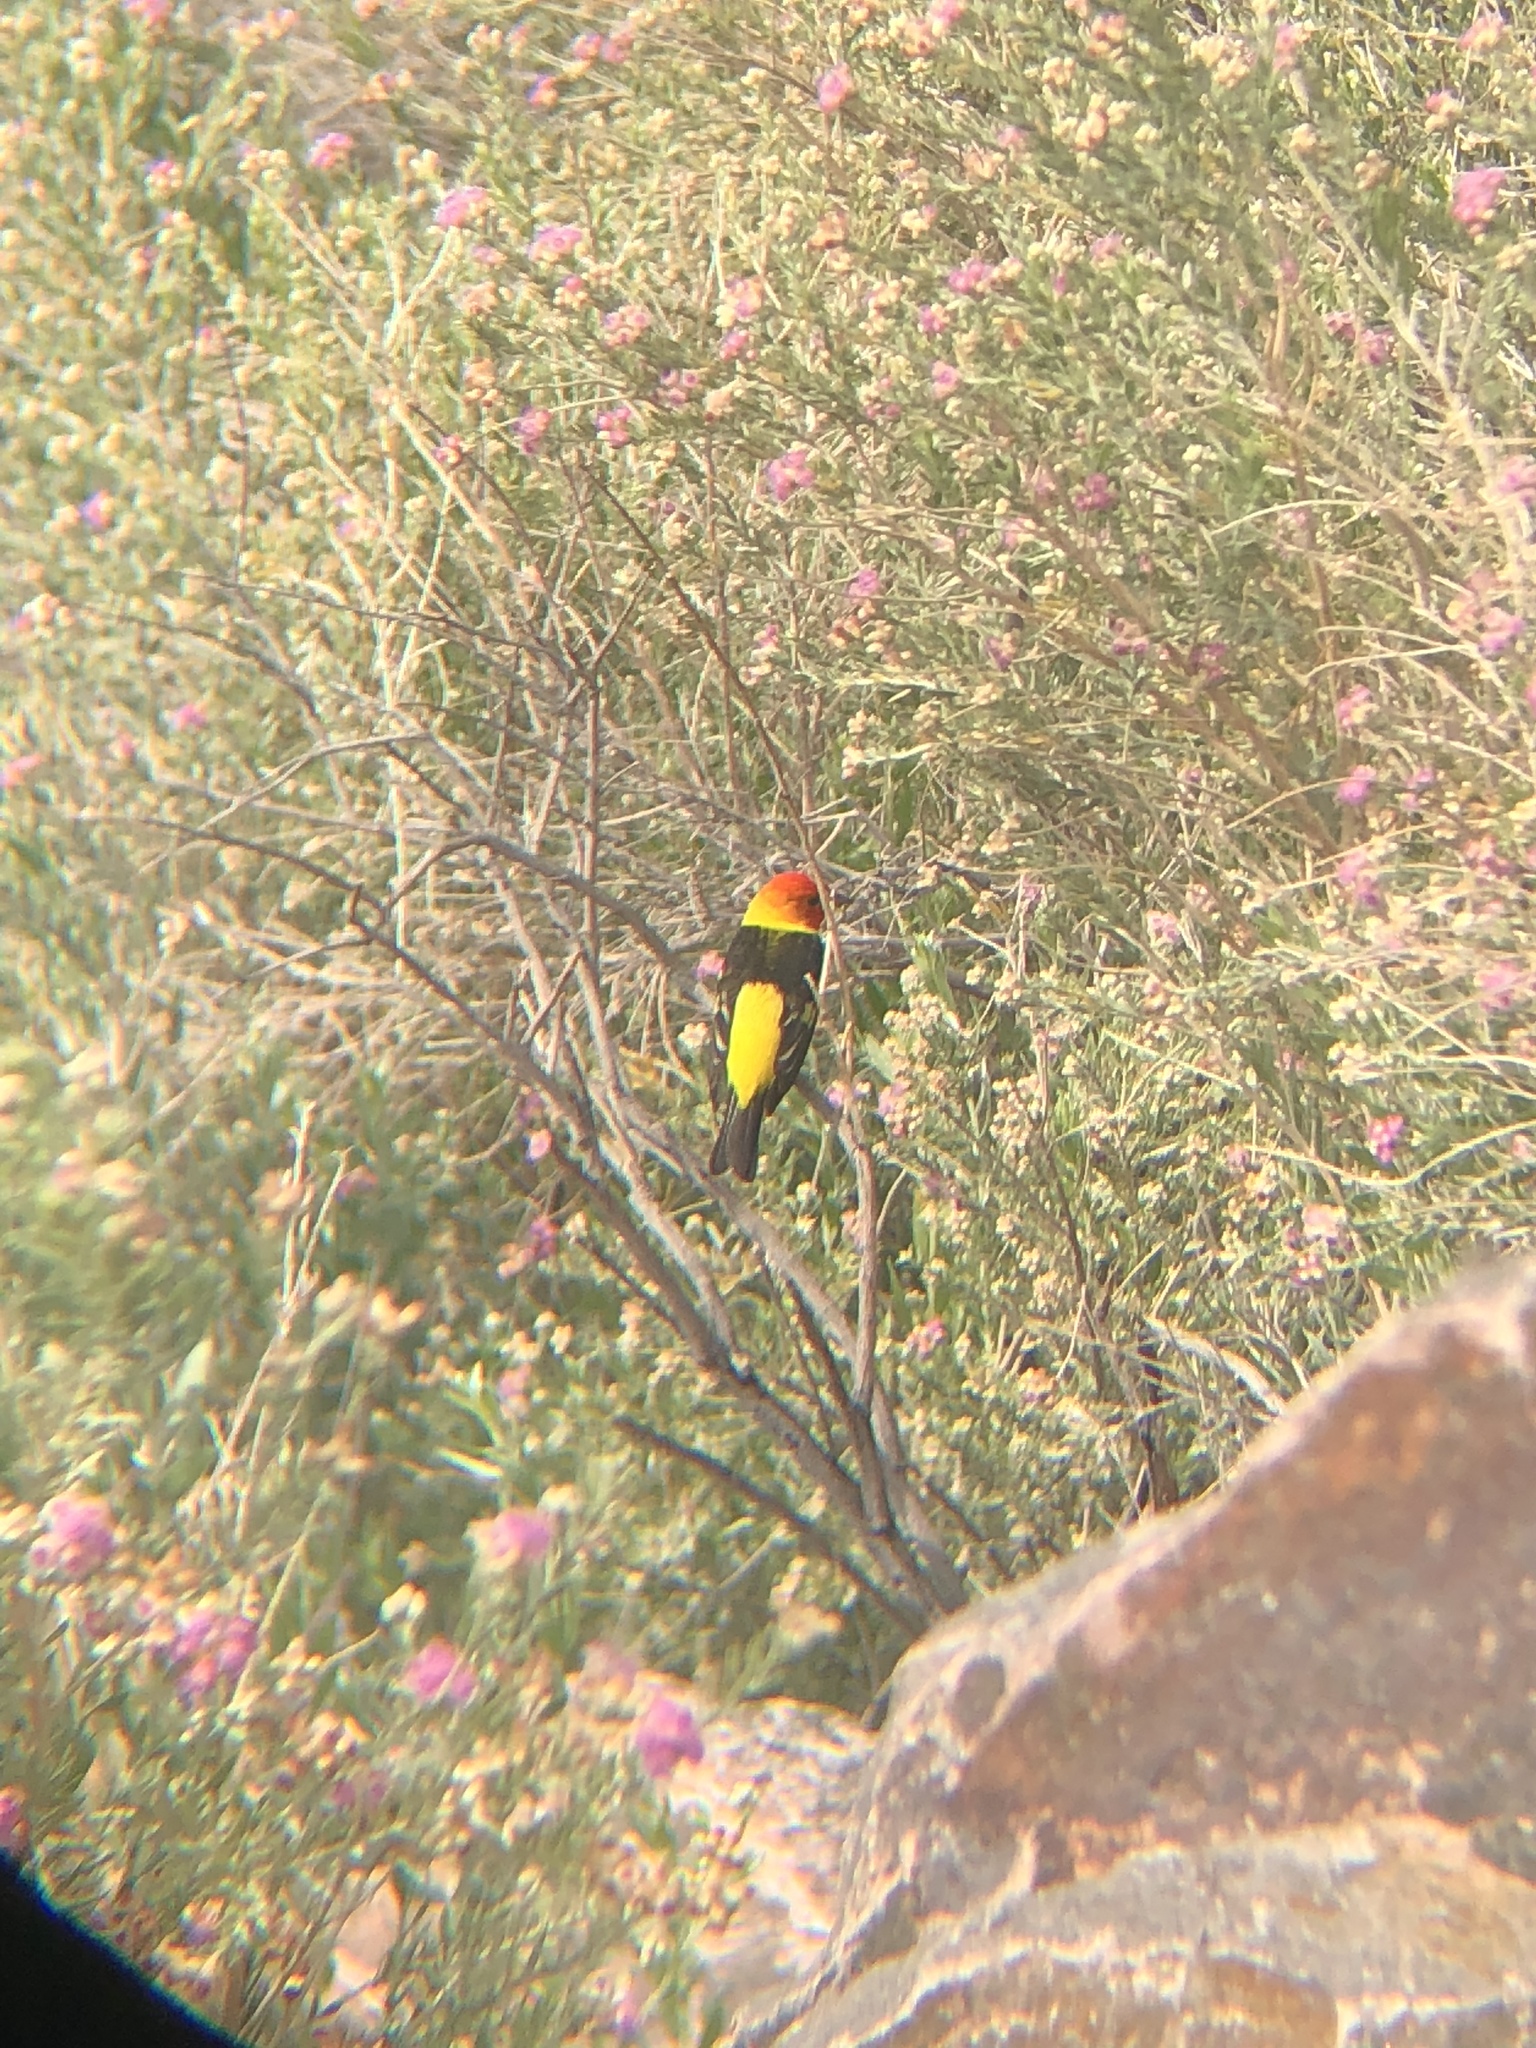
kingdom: Animalia
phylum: Chordata
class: Aves
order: Passeriformes
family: Cardinalidae
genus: Piranga
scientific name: Piranga ludoviciana
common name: Western tanager
